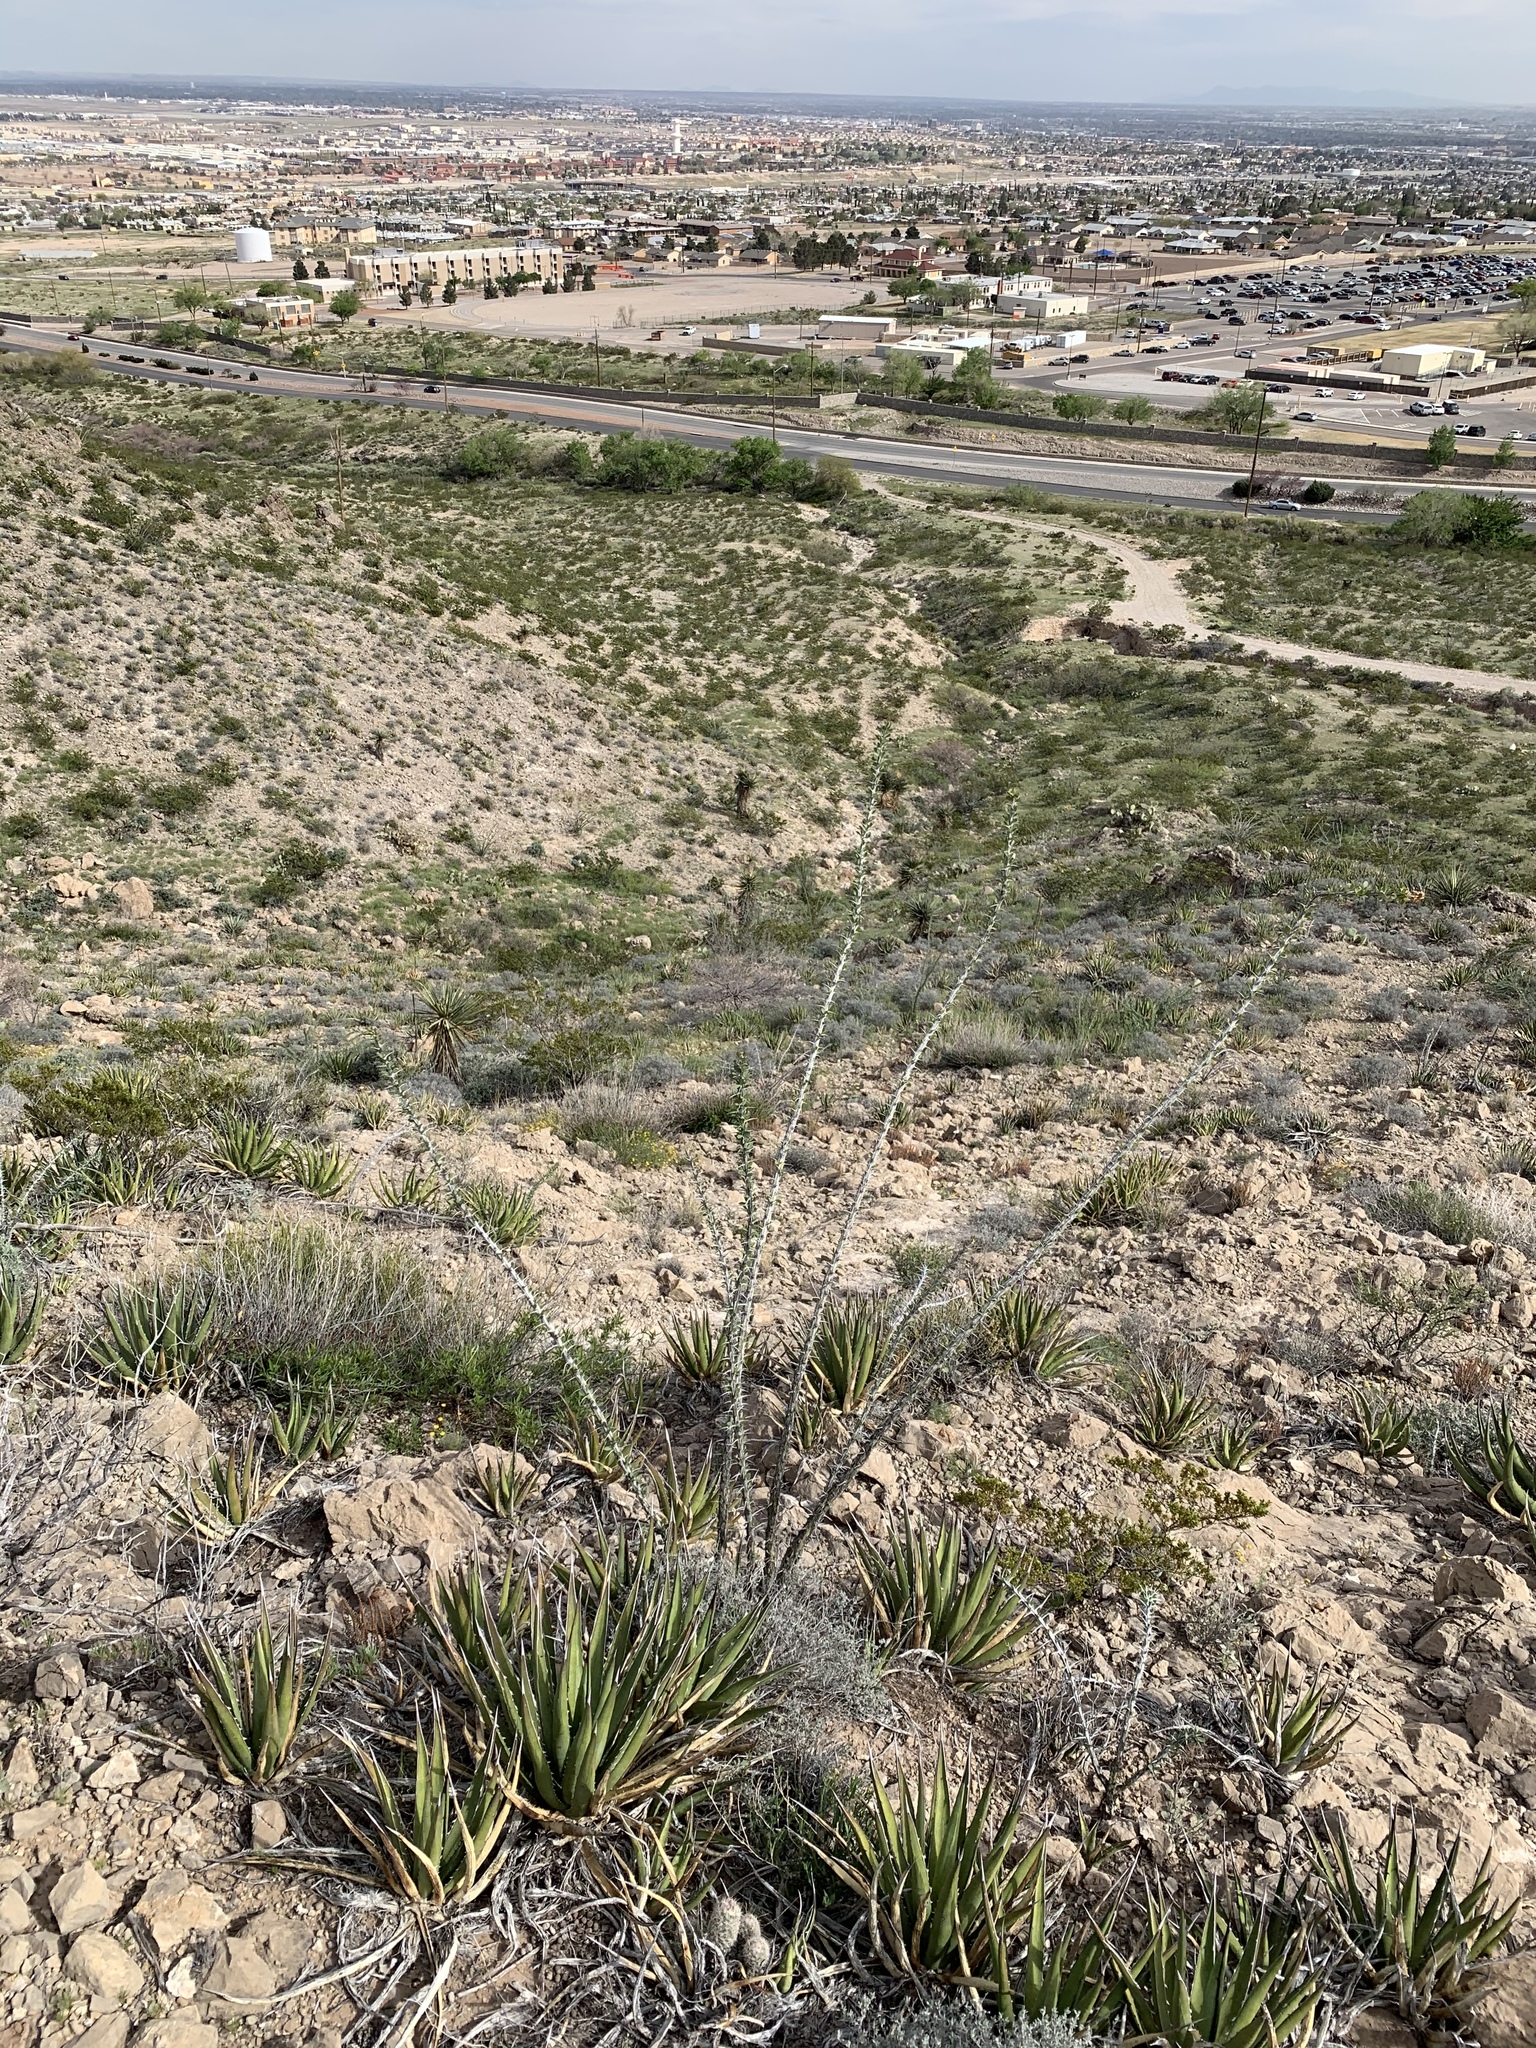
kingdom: Plantae
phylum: Tracheophyta
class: Magnoliopsida
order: Ericales
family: Fouquieriaceae
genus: Fouquieria
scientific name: Fouquieria splendens
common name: Vine-cactus
